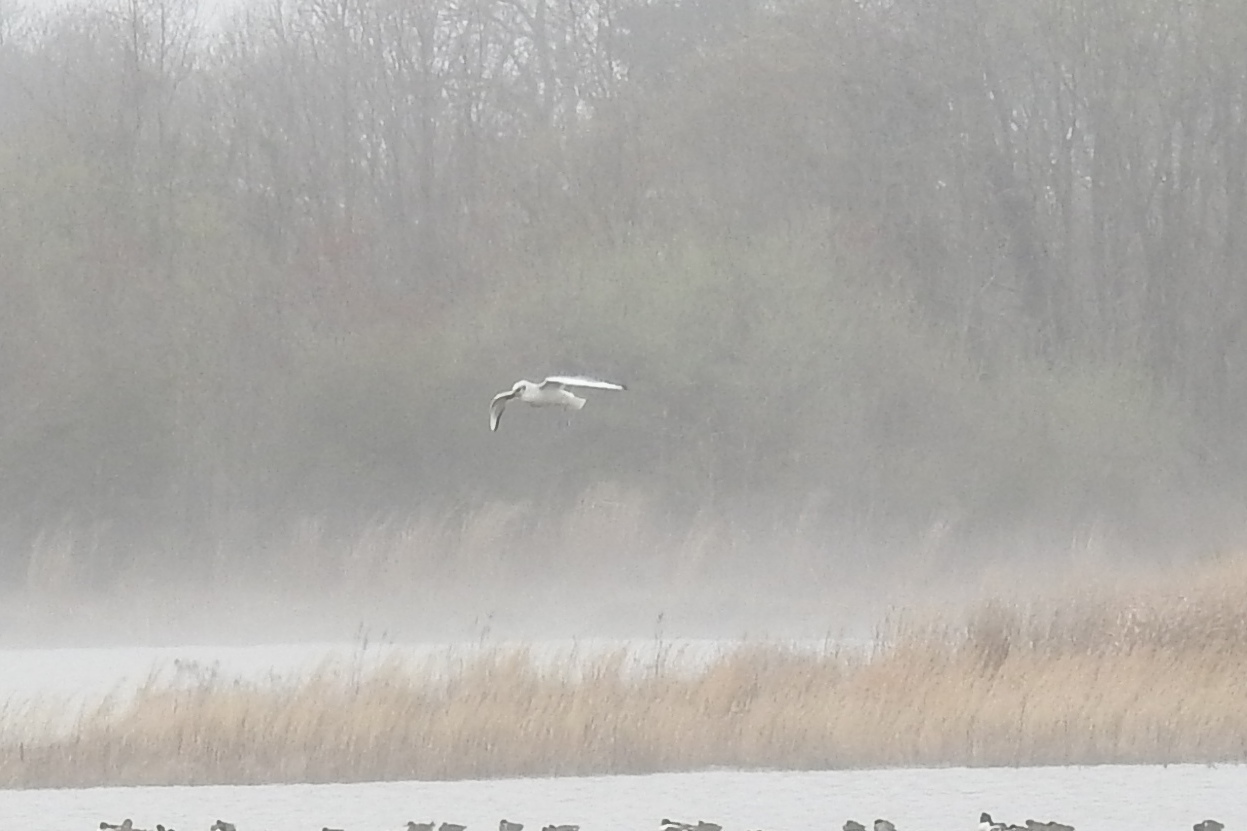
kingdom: Animalia
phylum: Chordata
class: Aves
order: Charadriiformes
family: Laridae
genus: Larus
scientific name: Larus delawarensis
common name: Ring-billed gull
